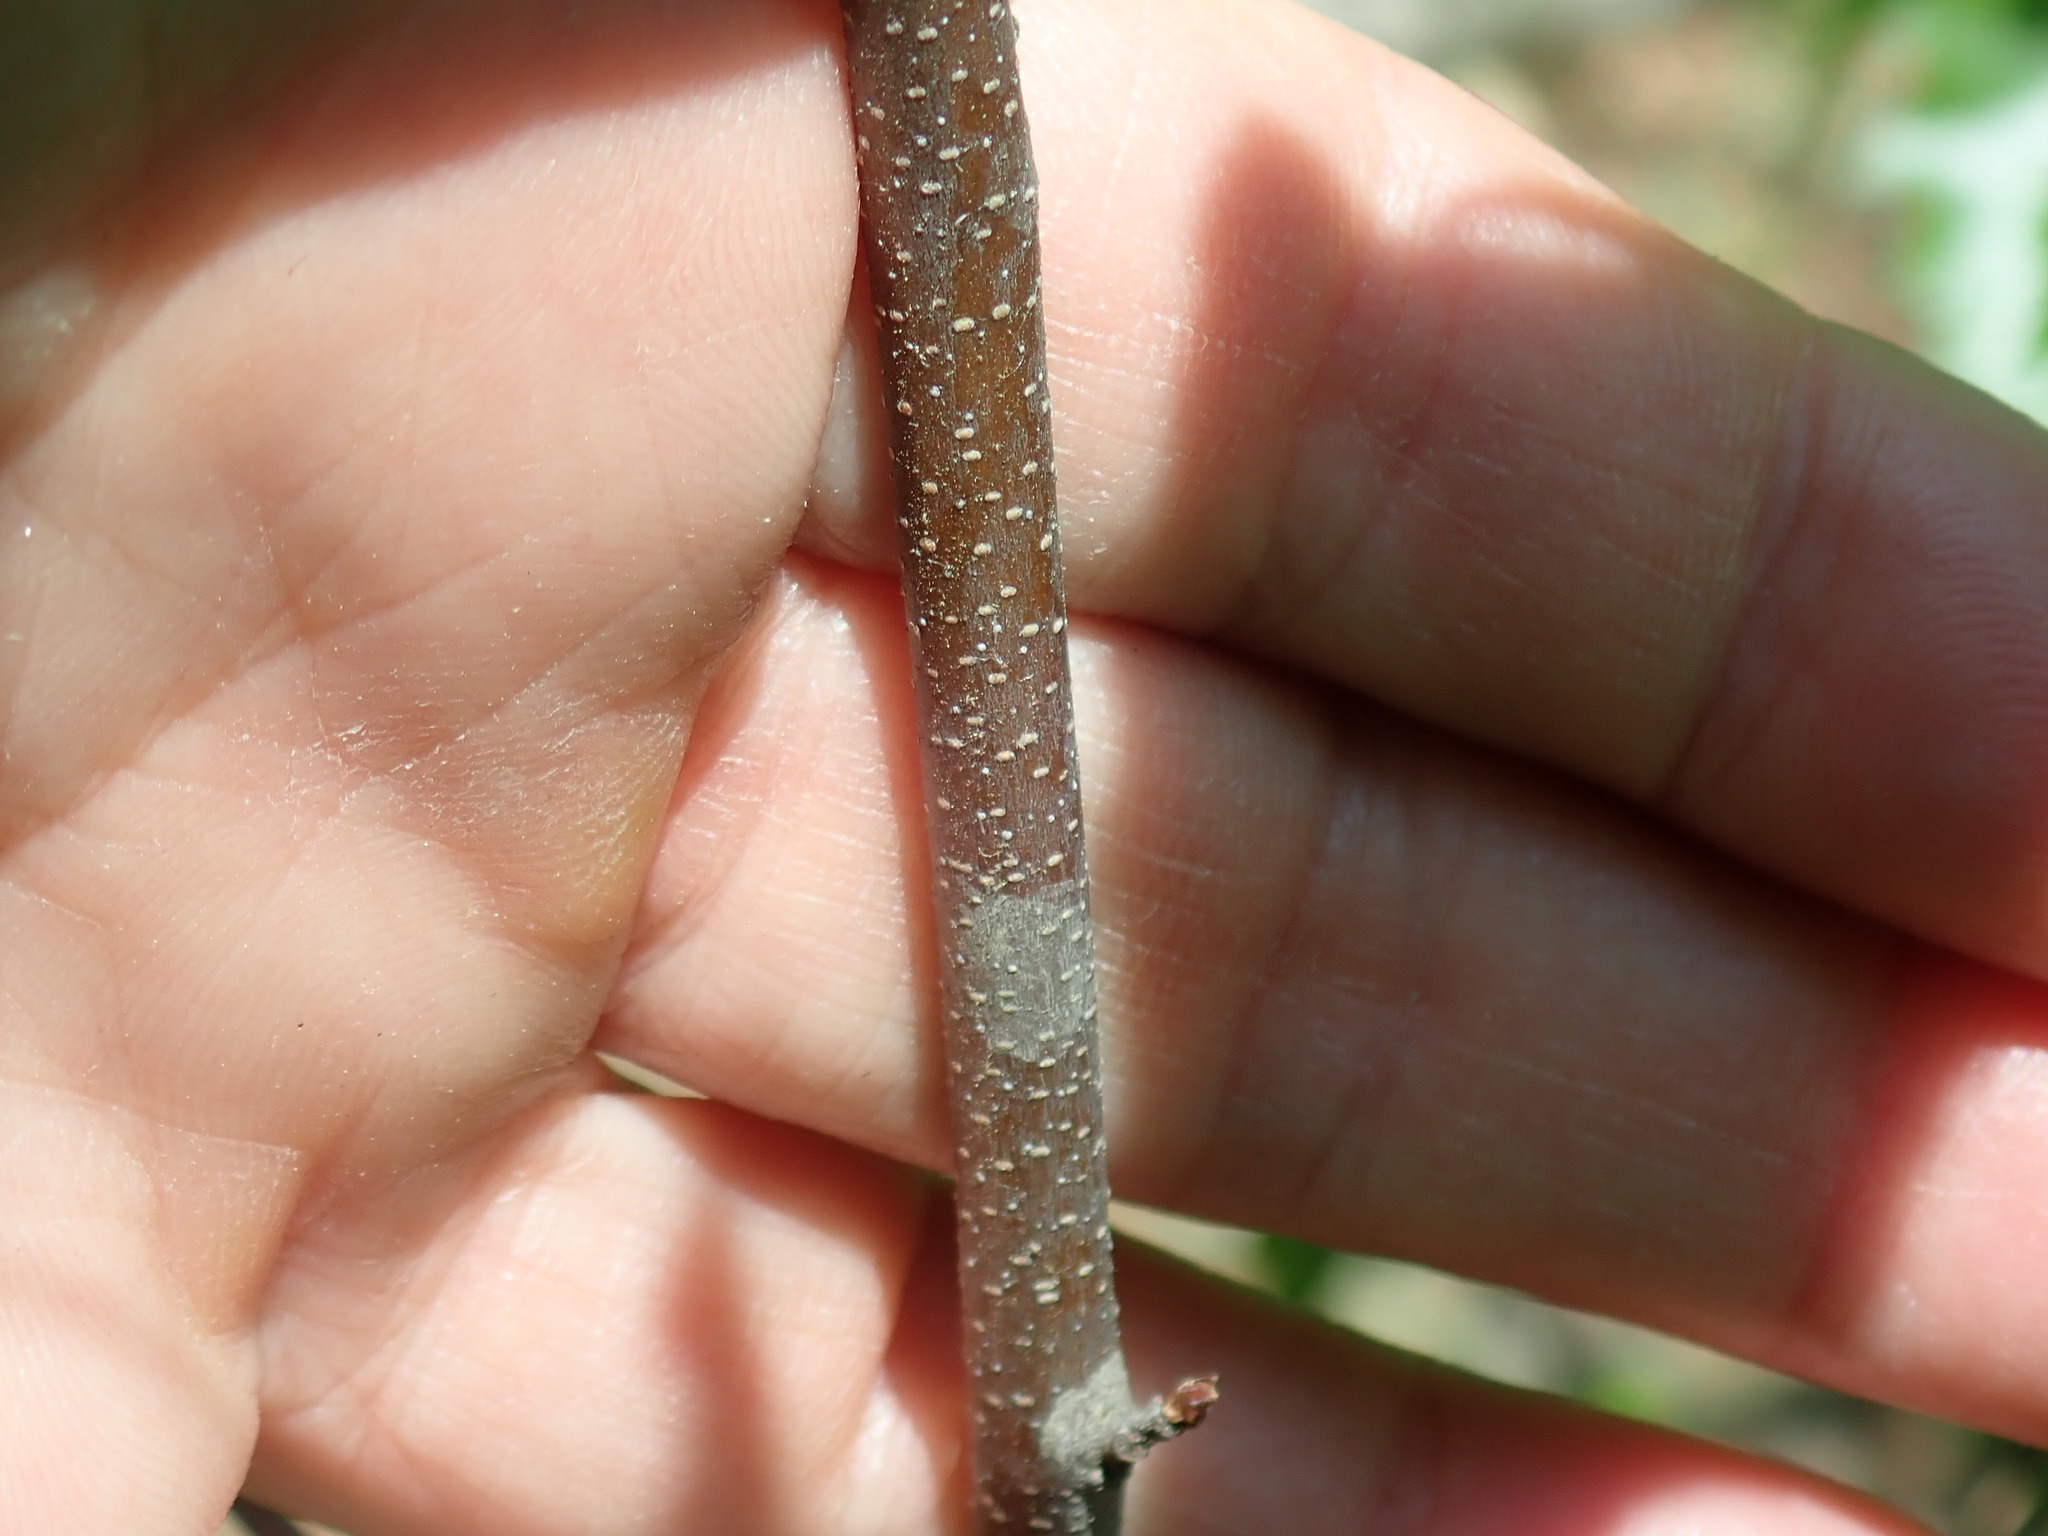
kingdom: Plantae
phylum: Tracheophyta
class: Magnoliopsida
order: Fagales
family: Betulaceae
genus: Betula
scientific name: Betula populifolia
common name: Fire birch
